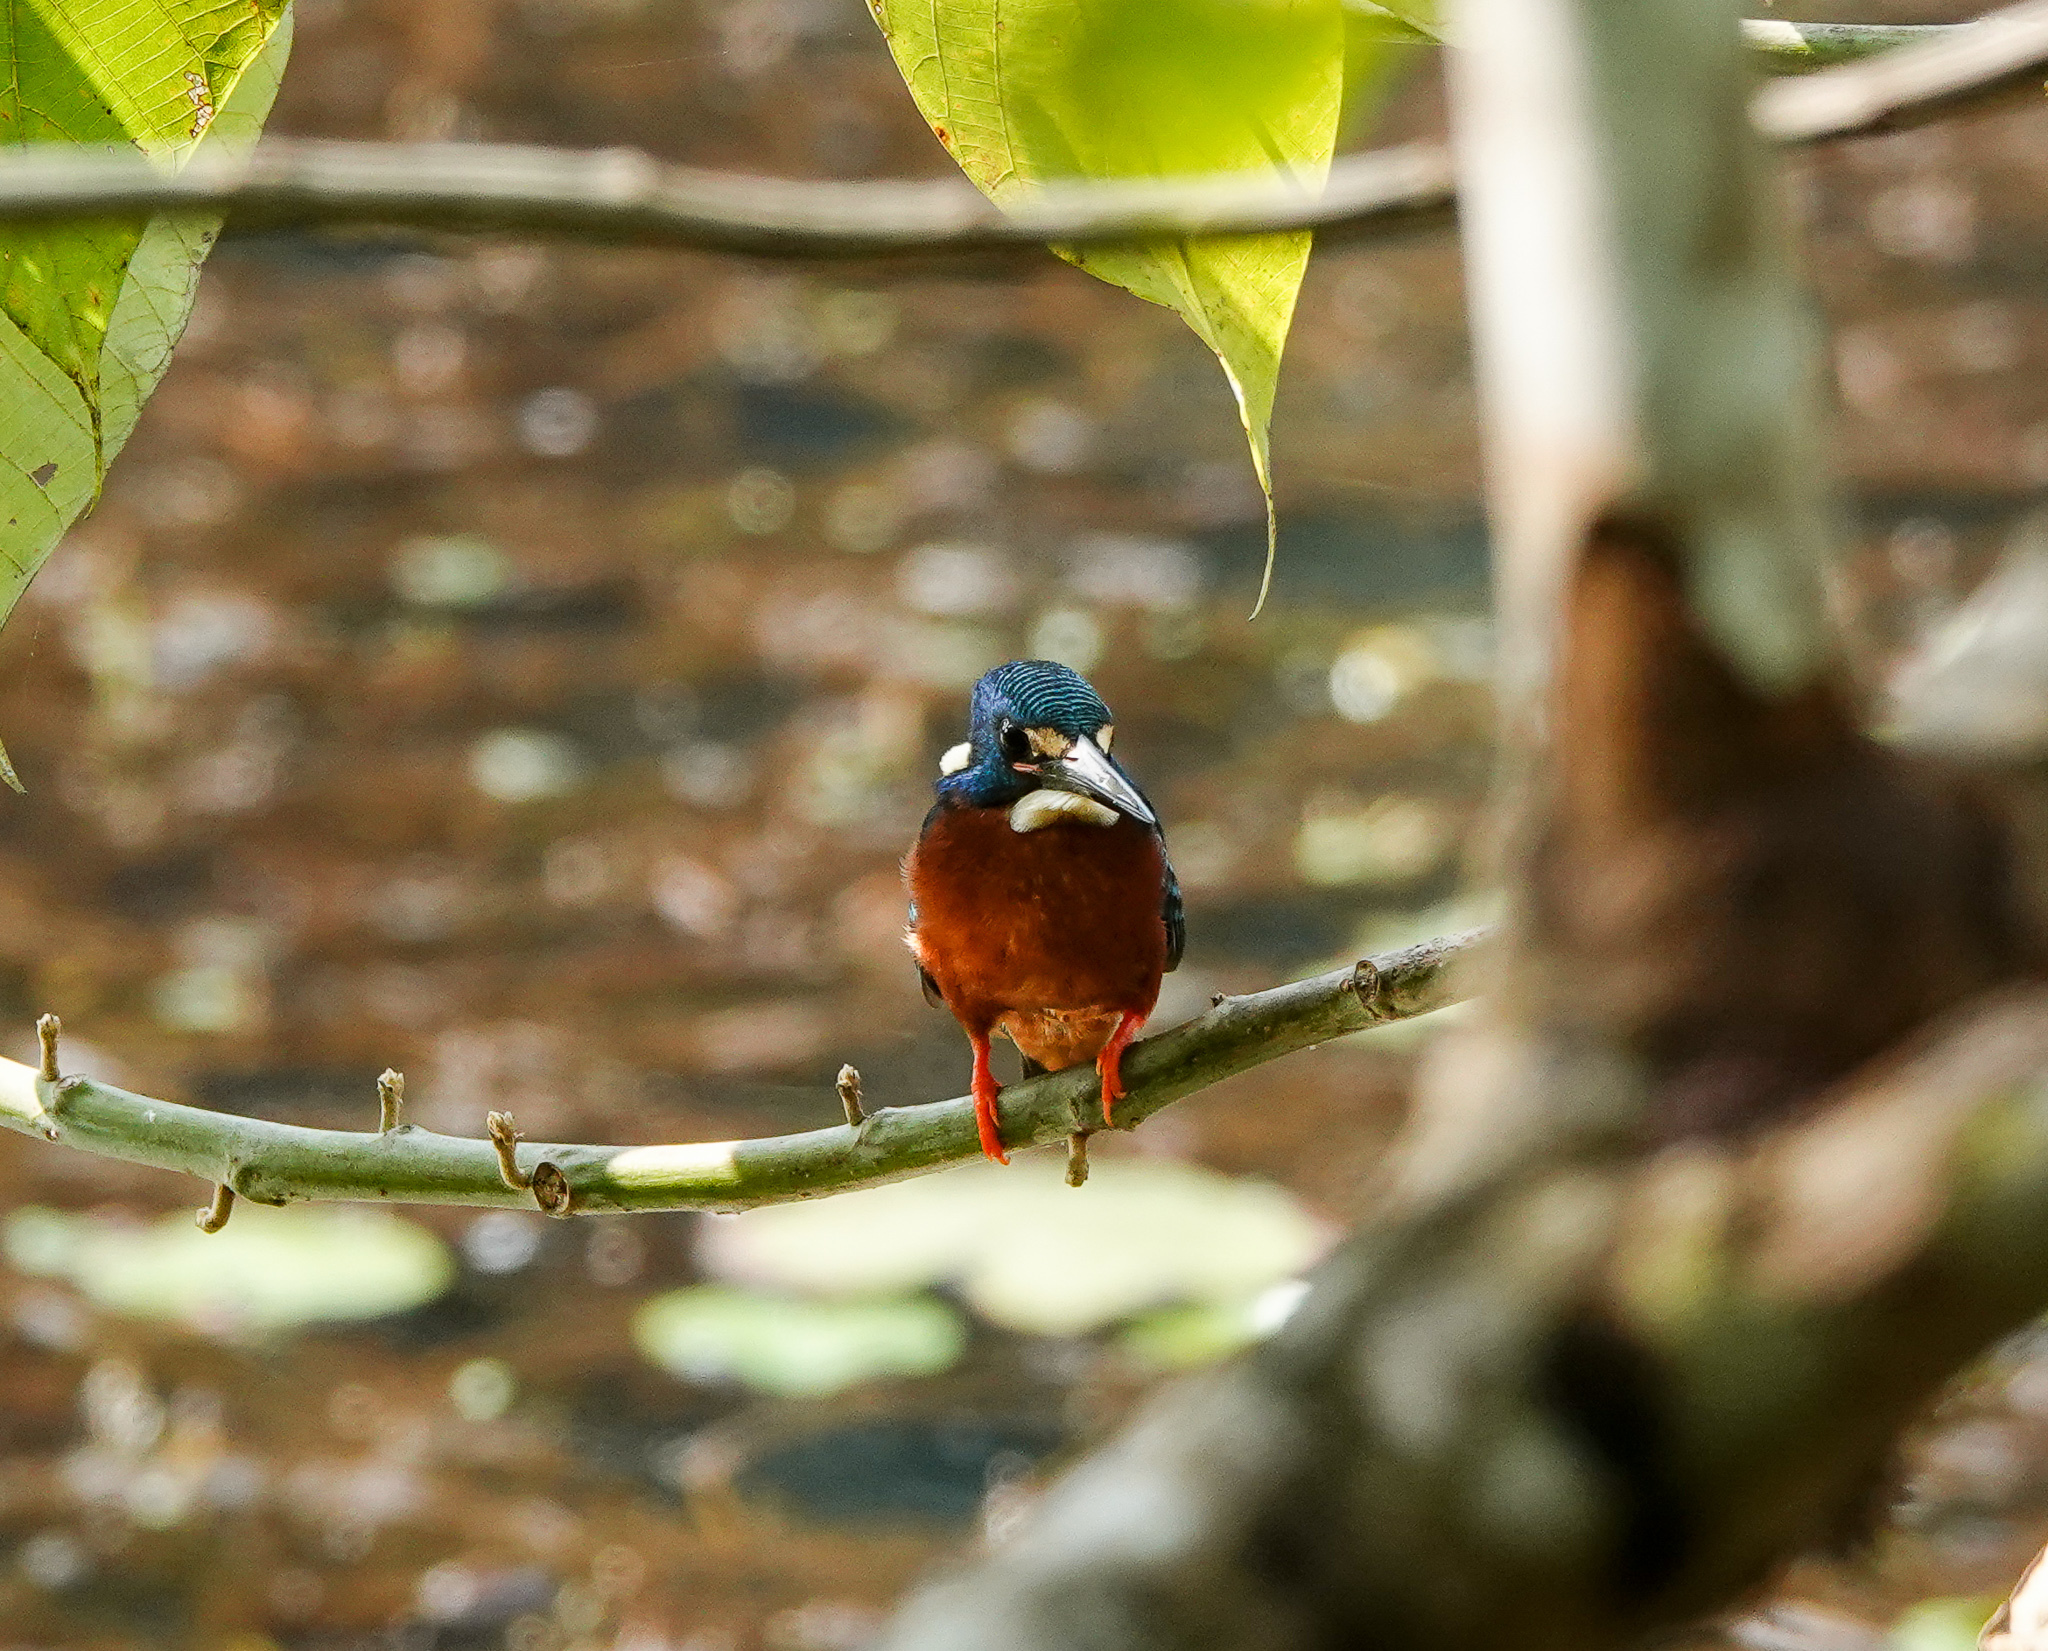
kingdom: Animalia
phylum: Chordata
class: Aves
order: Coraciiformes
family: Alcedinidae
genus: Alcedo
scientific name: Alcedo meninting
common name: Blue-eared kingfisher
